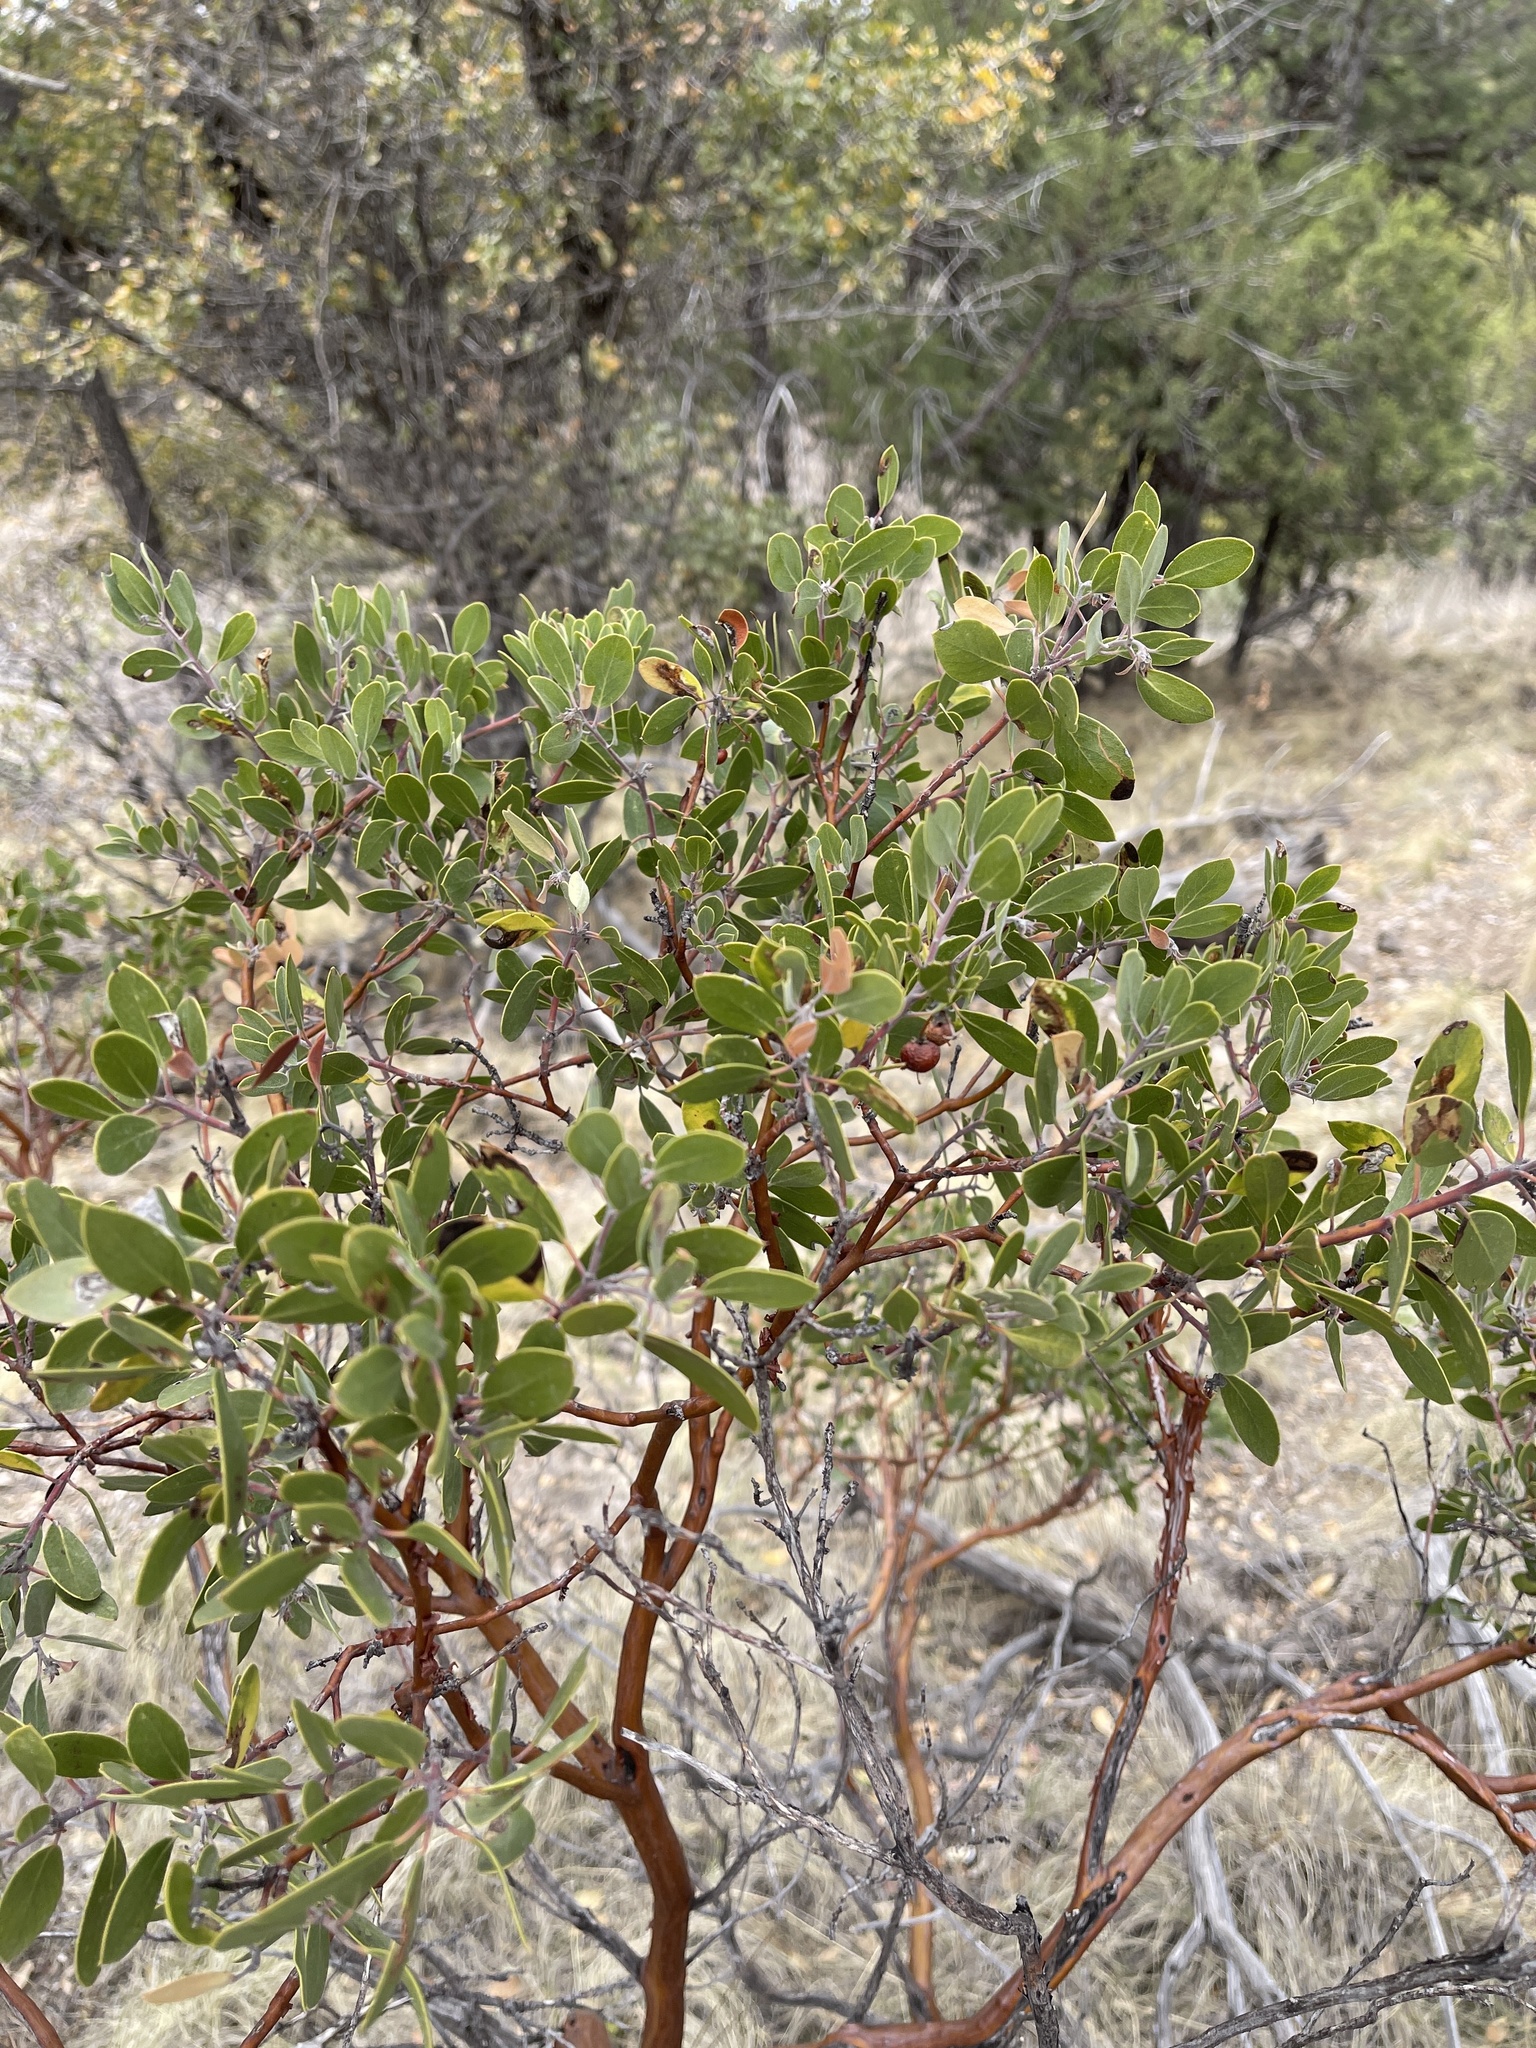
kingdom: Plantae
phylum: Tracheophyta
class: Magnoliopsida
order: Ericales
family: Ericaceae
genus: Arctostaphylos
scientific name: Arctostaphylos pungens
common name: Mexican manzanita
